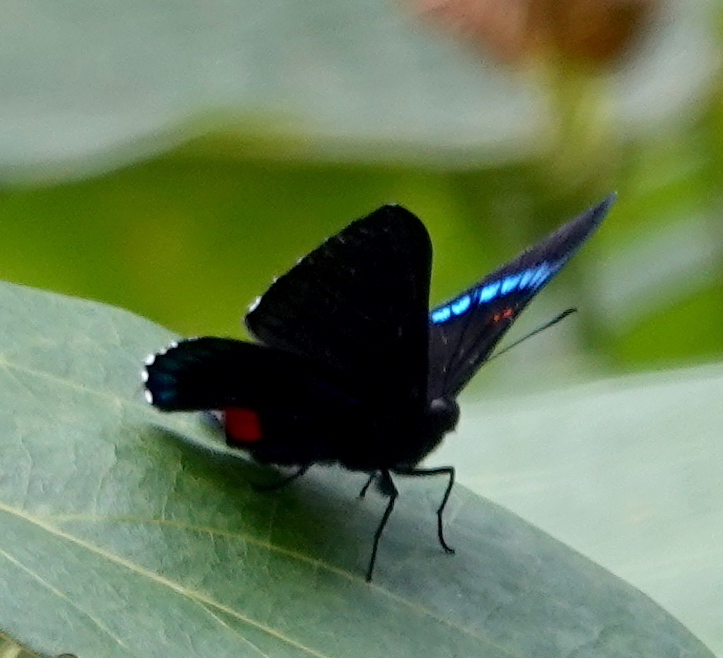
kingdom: Animalia
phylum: Arthropoda
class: Insecta
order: Lepidoptera
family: Lycaenidae
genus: Necyria
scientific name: Necyria bellona
